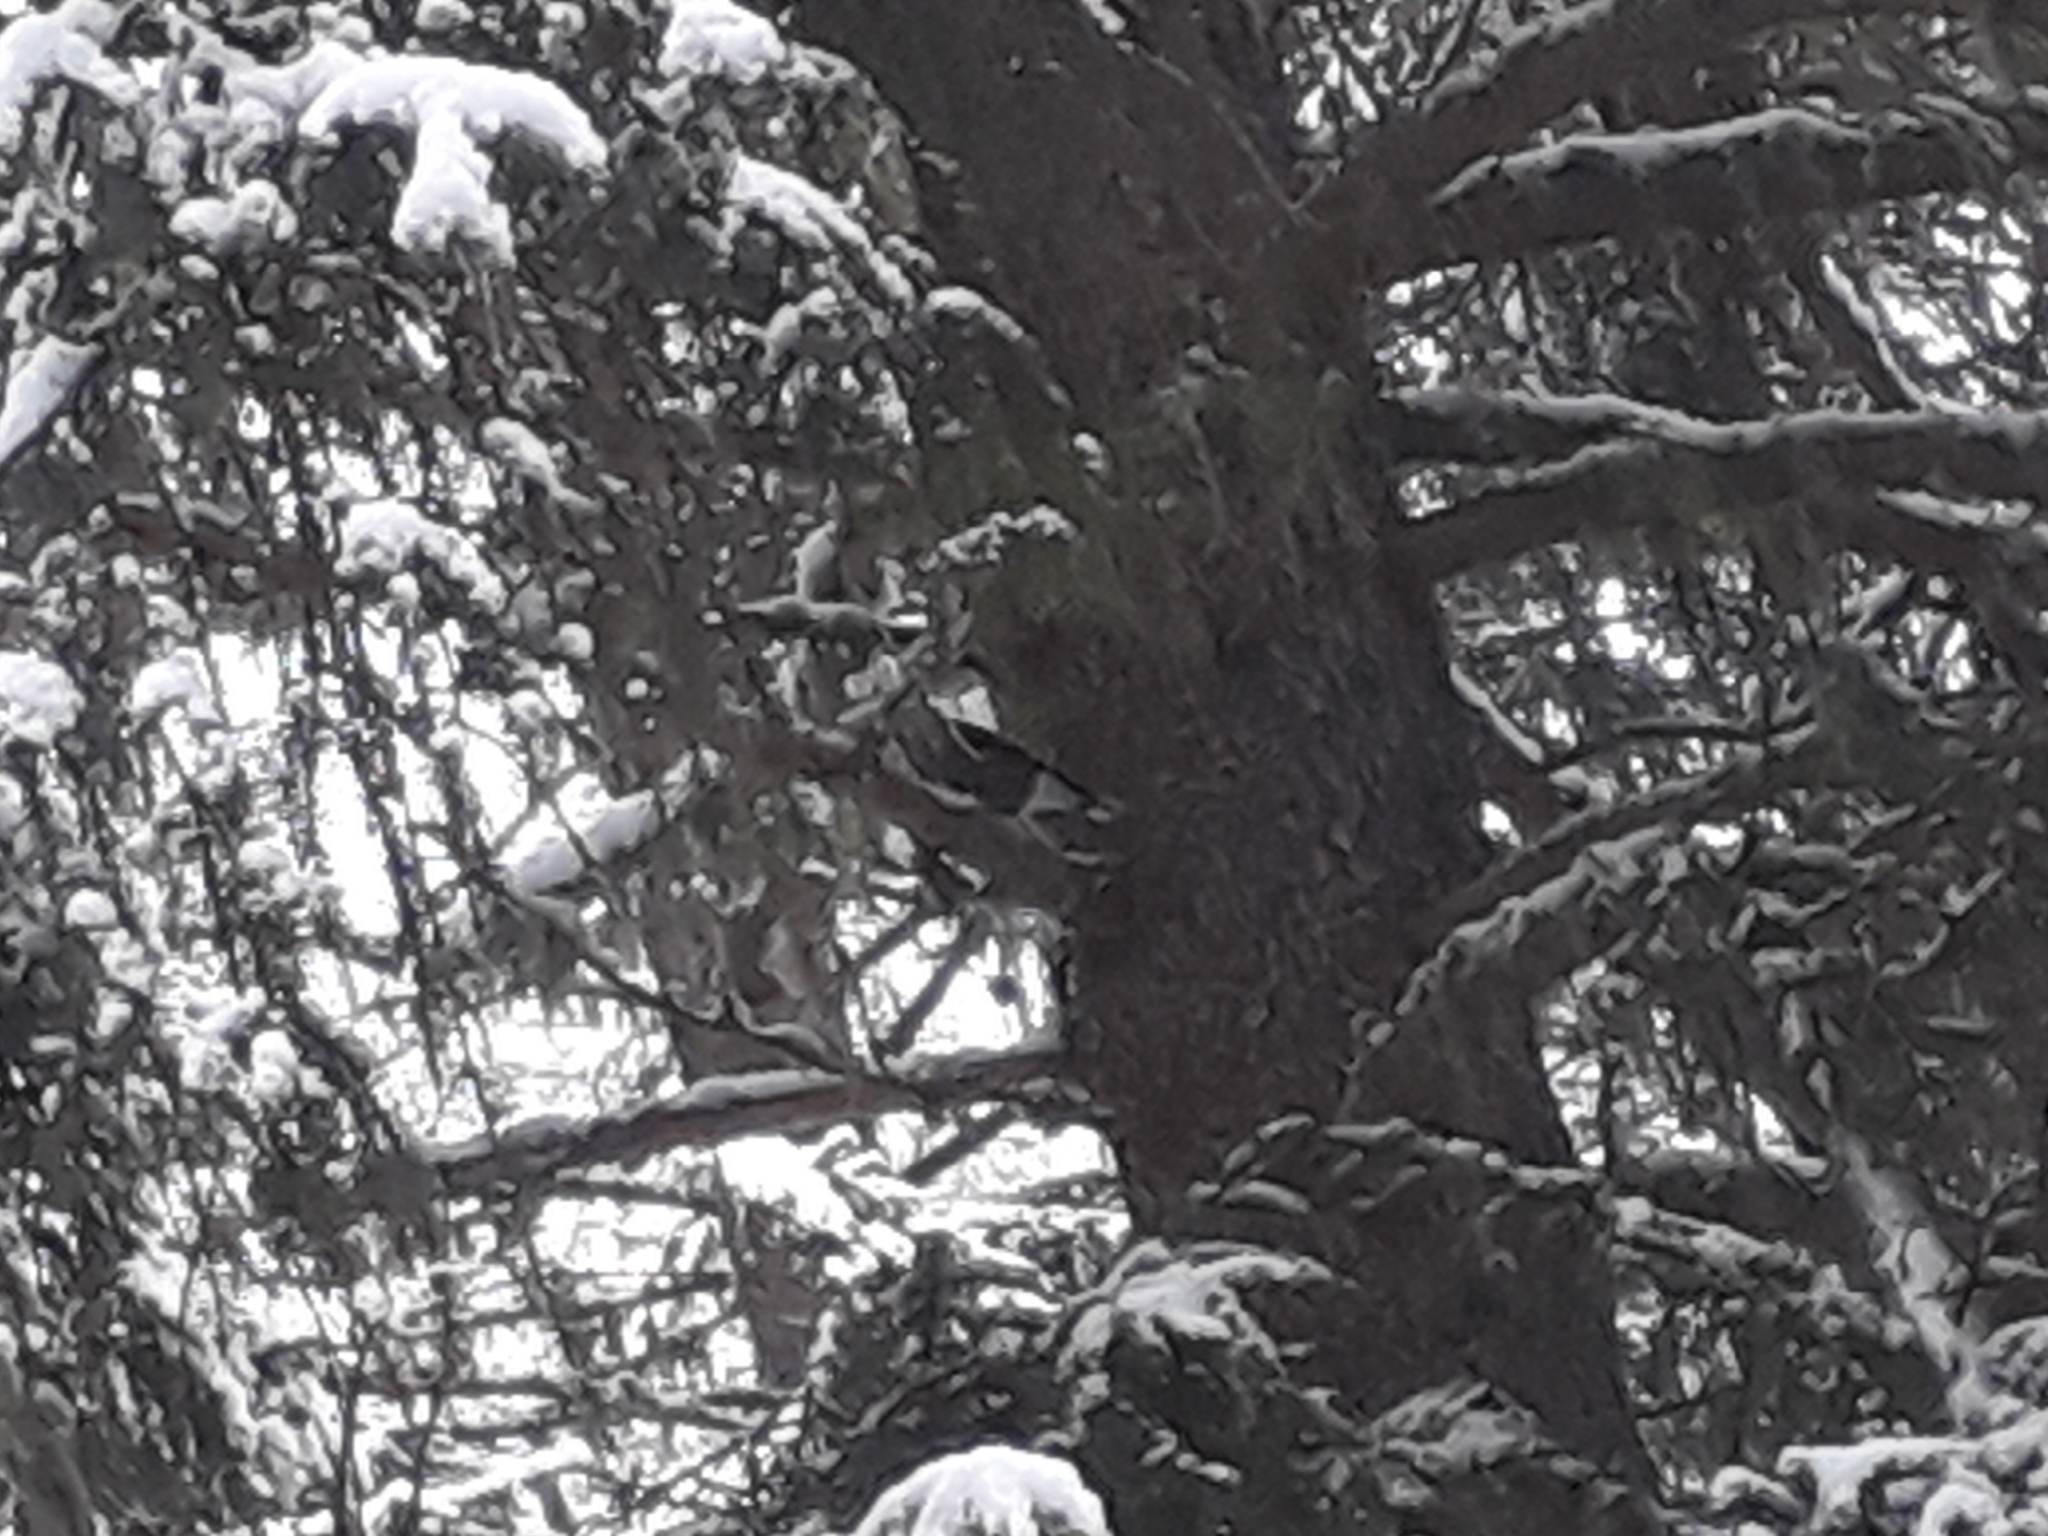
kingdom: Animalia
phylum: Chordata
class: Aves
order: Passeriformes
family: Corvidae
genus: Nucifraga
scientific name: Nucifraga caryocatactes
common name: Spotted nutcracker
